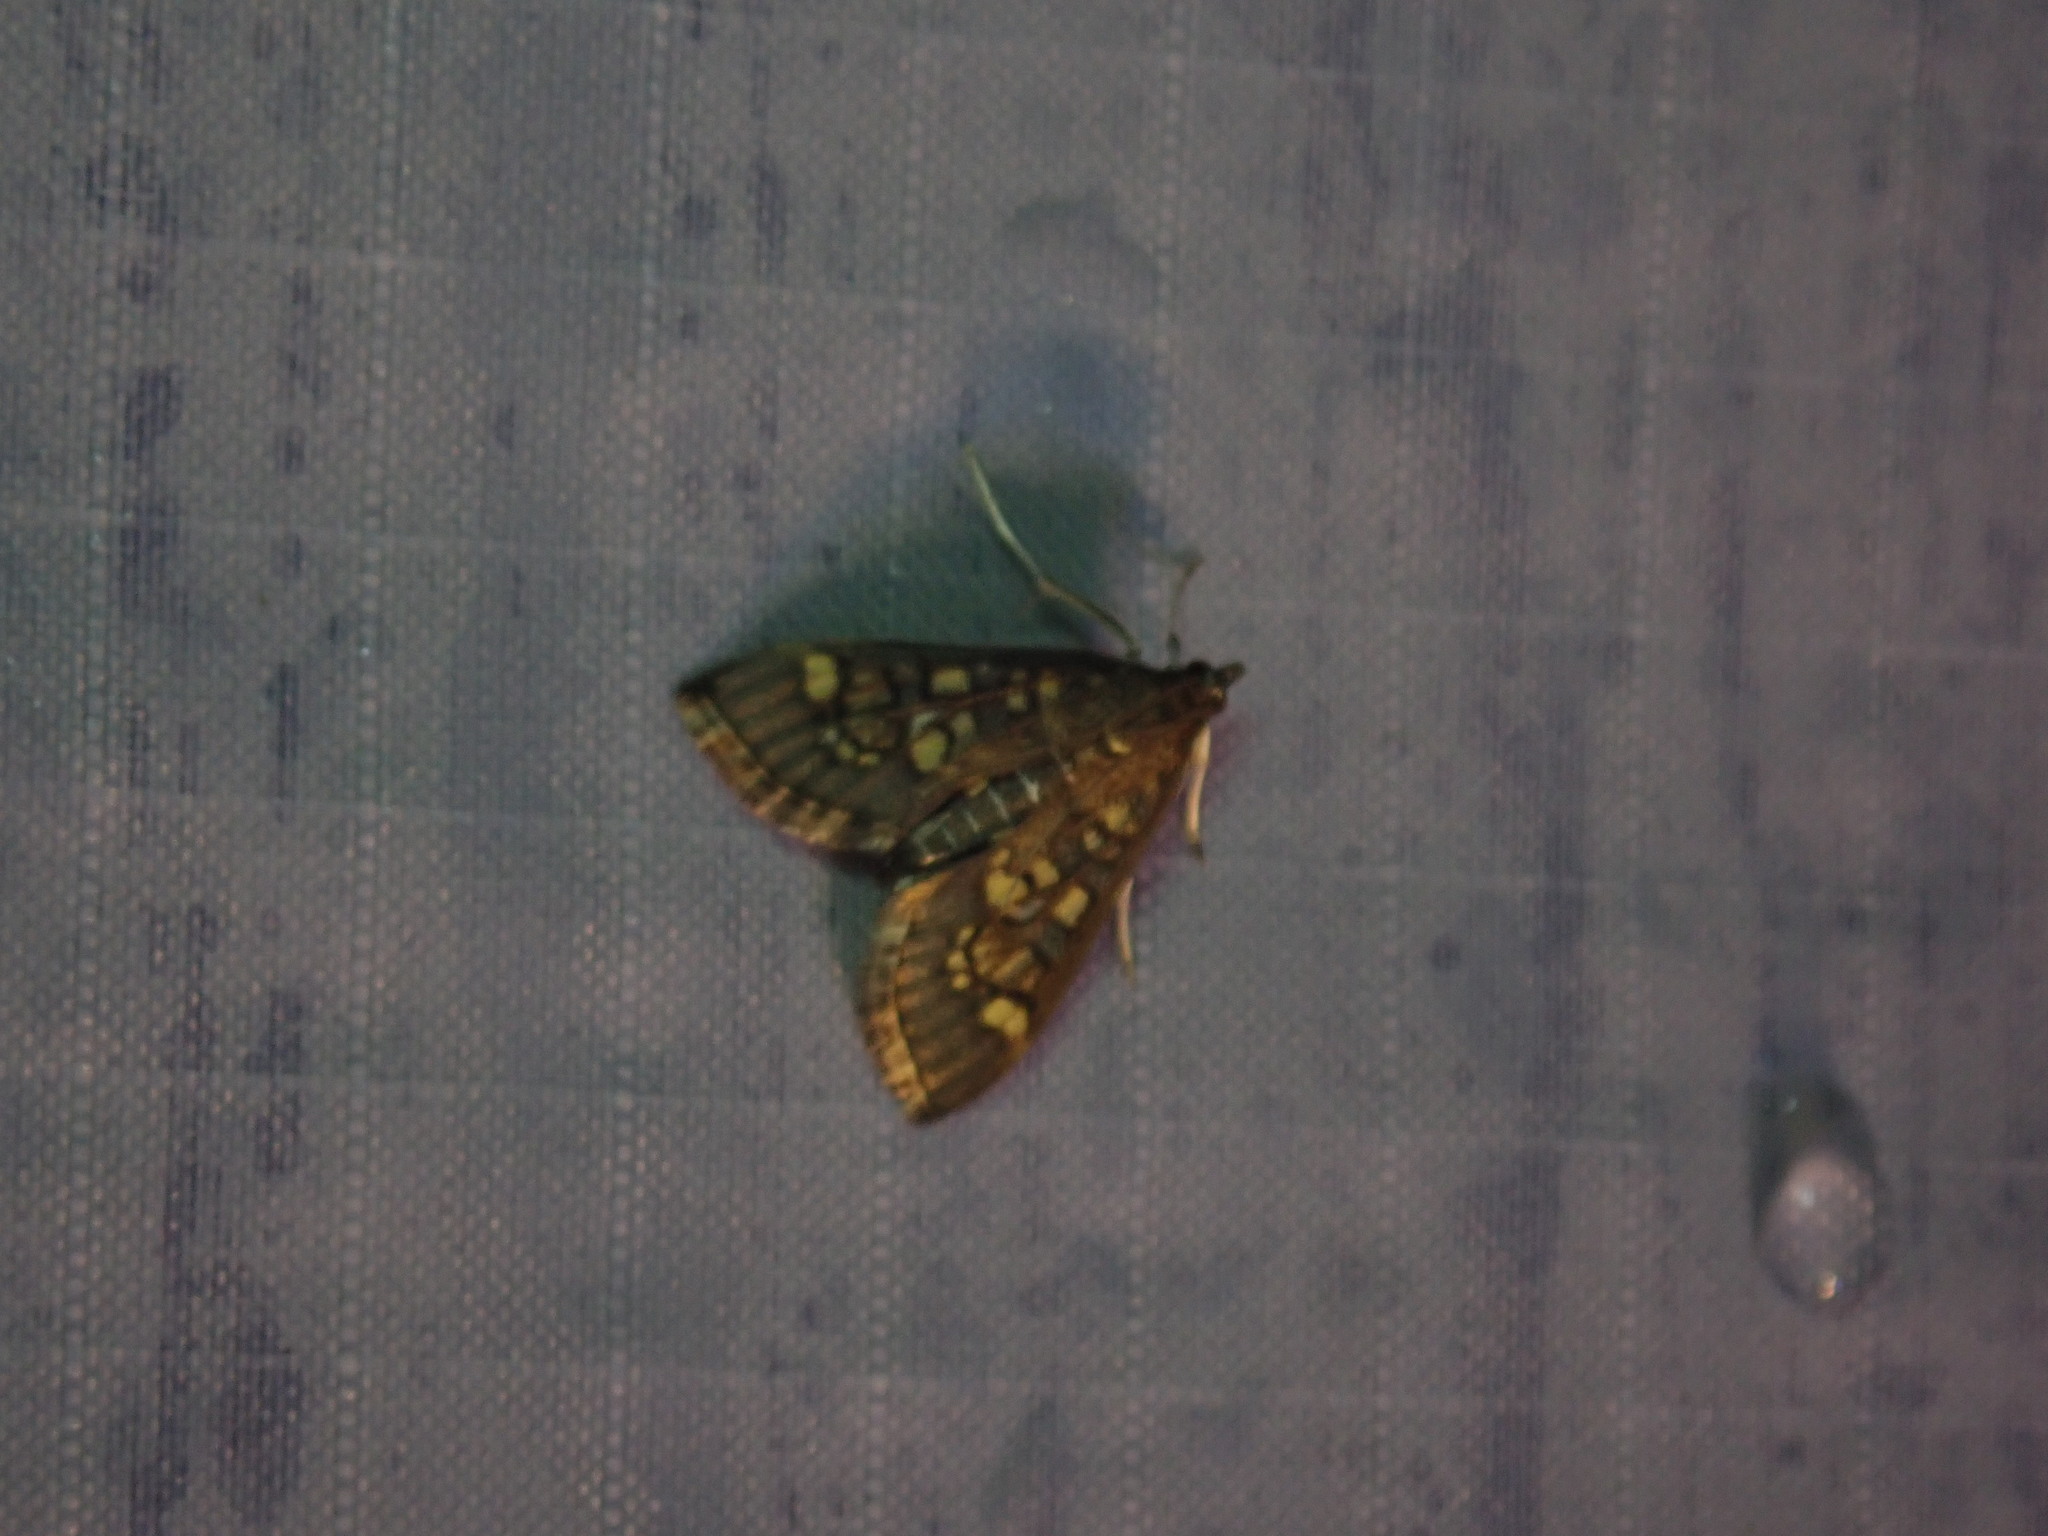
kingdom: Animalia
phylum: Arthropoda
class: Insecta
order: Lepidoptera
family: Crambidae
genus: Epipagis
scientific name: Epipagis adipaloides
